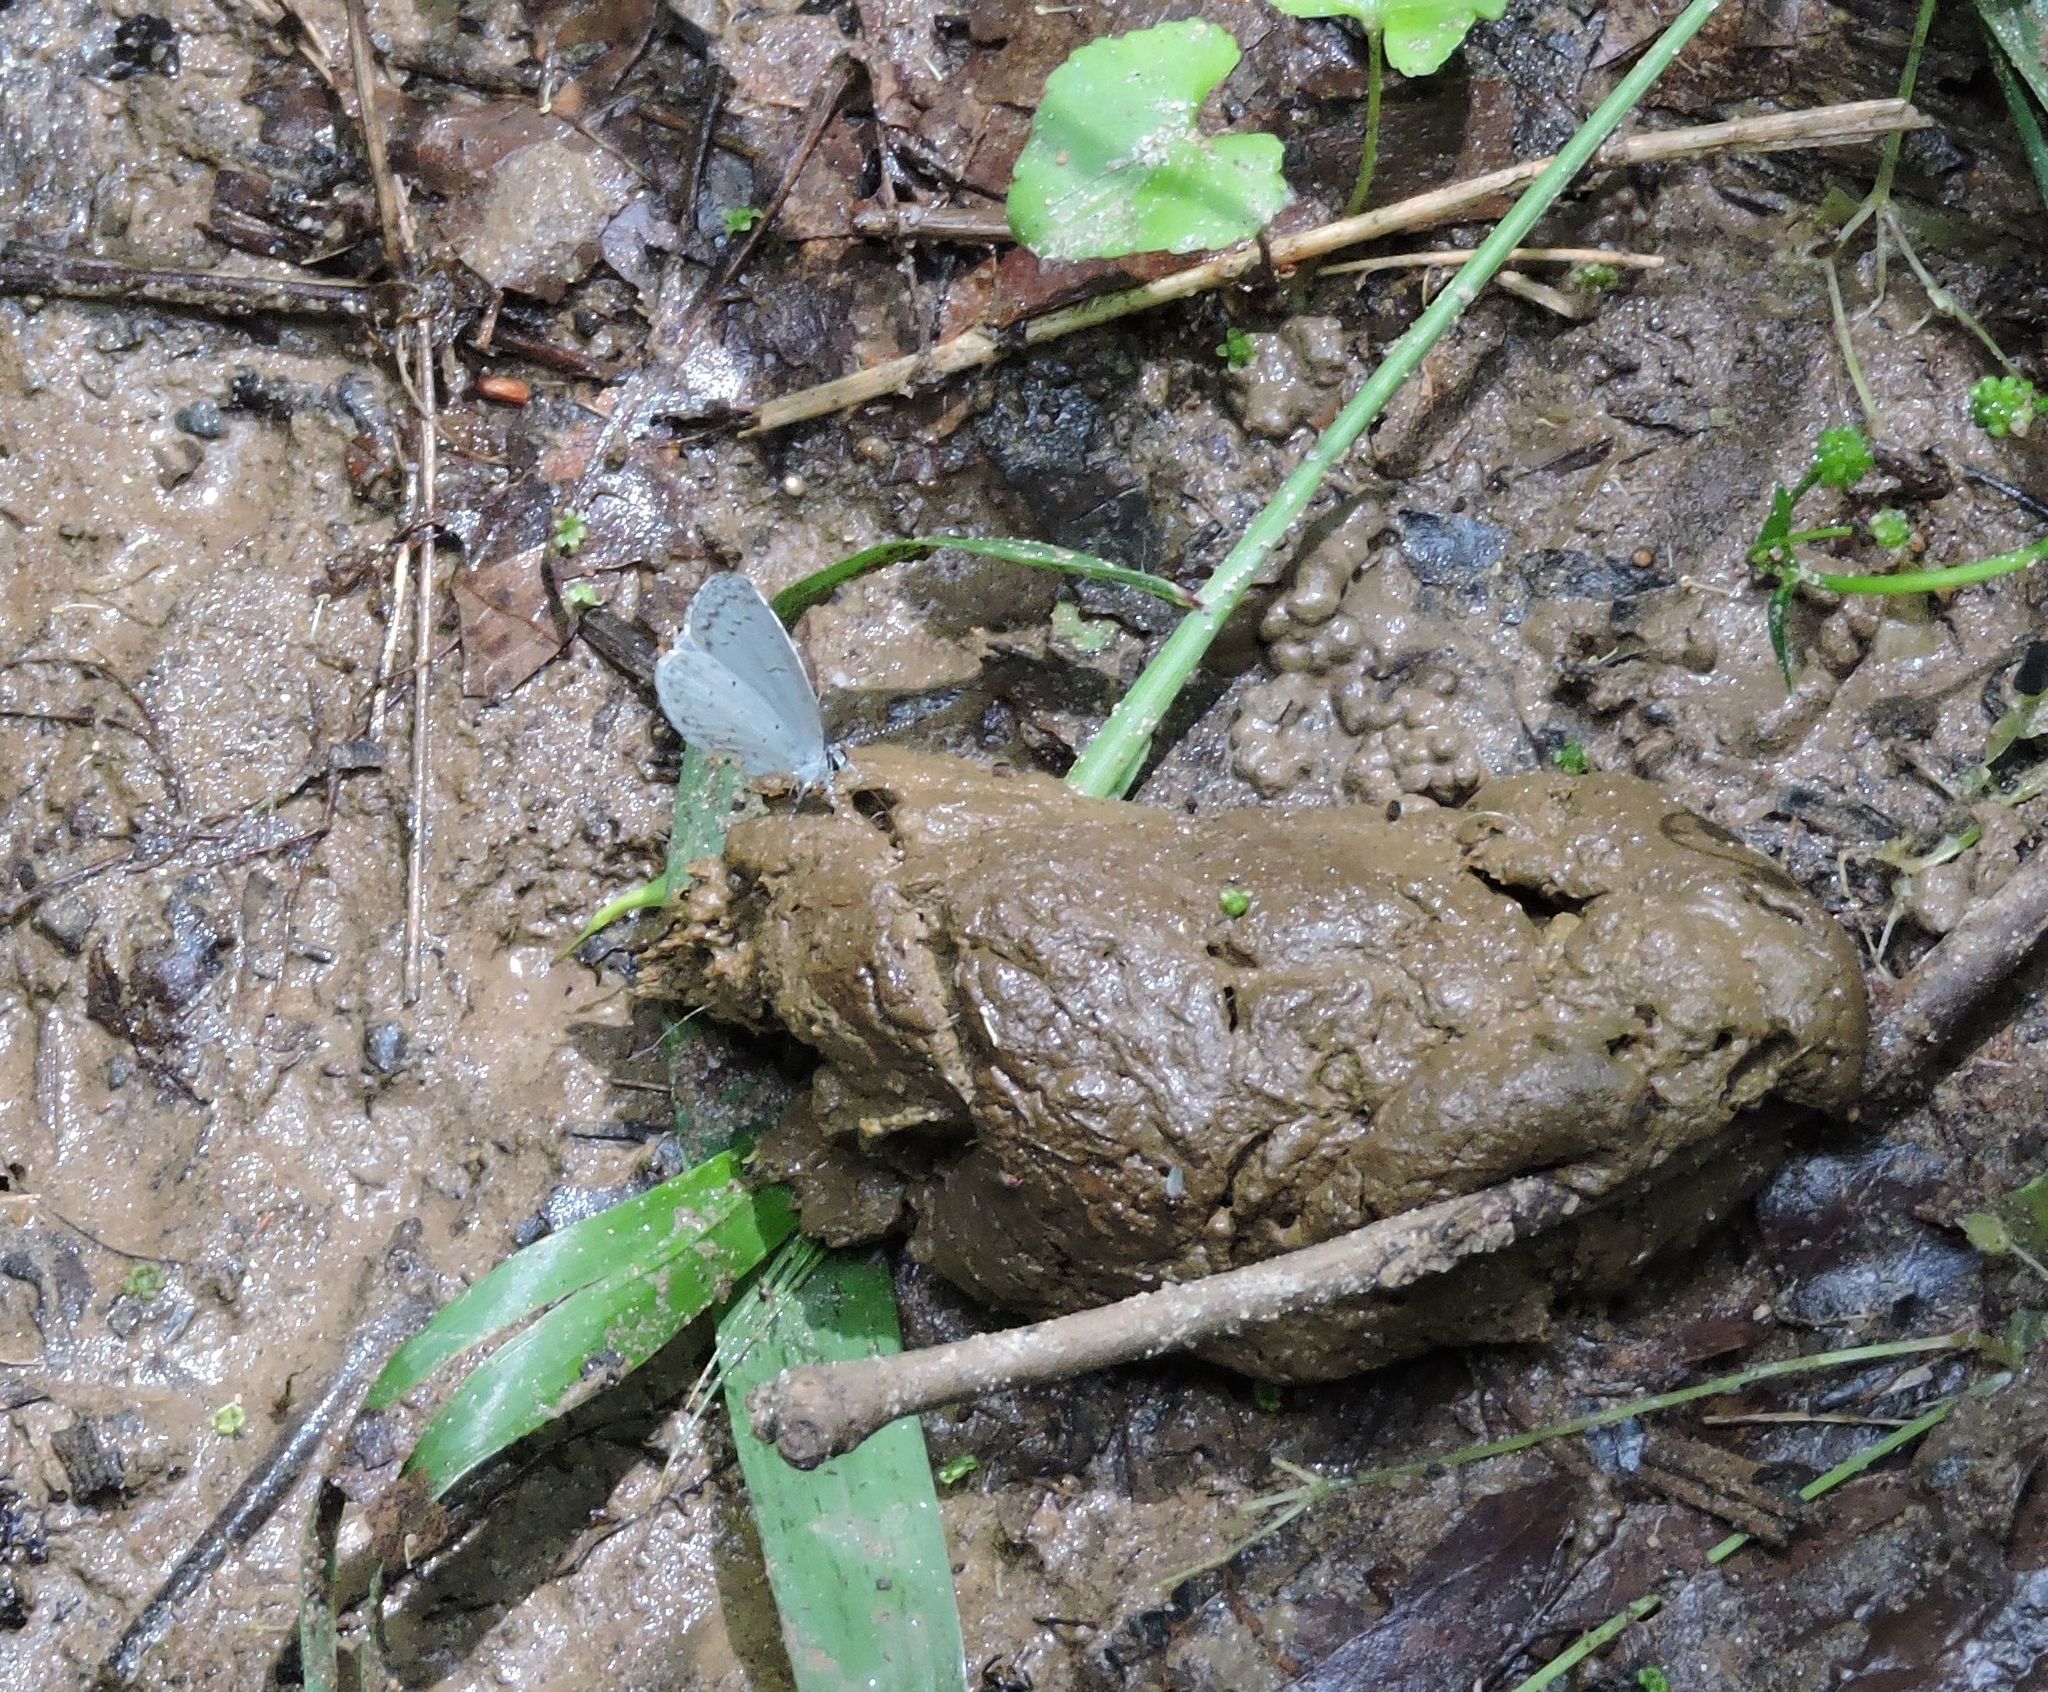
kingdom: Animalia
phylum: Arthropoda
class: Insecta
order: Lepidoptera
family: Lycaenidae
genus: Cyaniris
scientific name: Cyaniris neglecta
